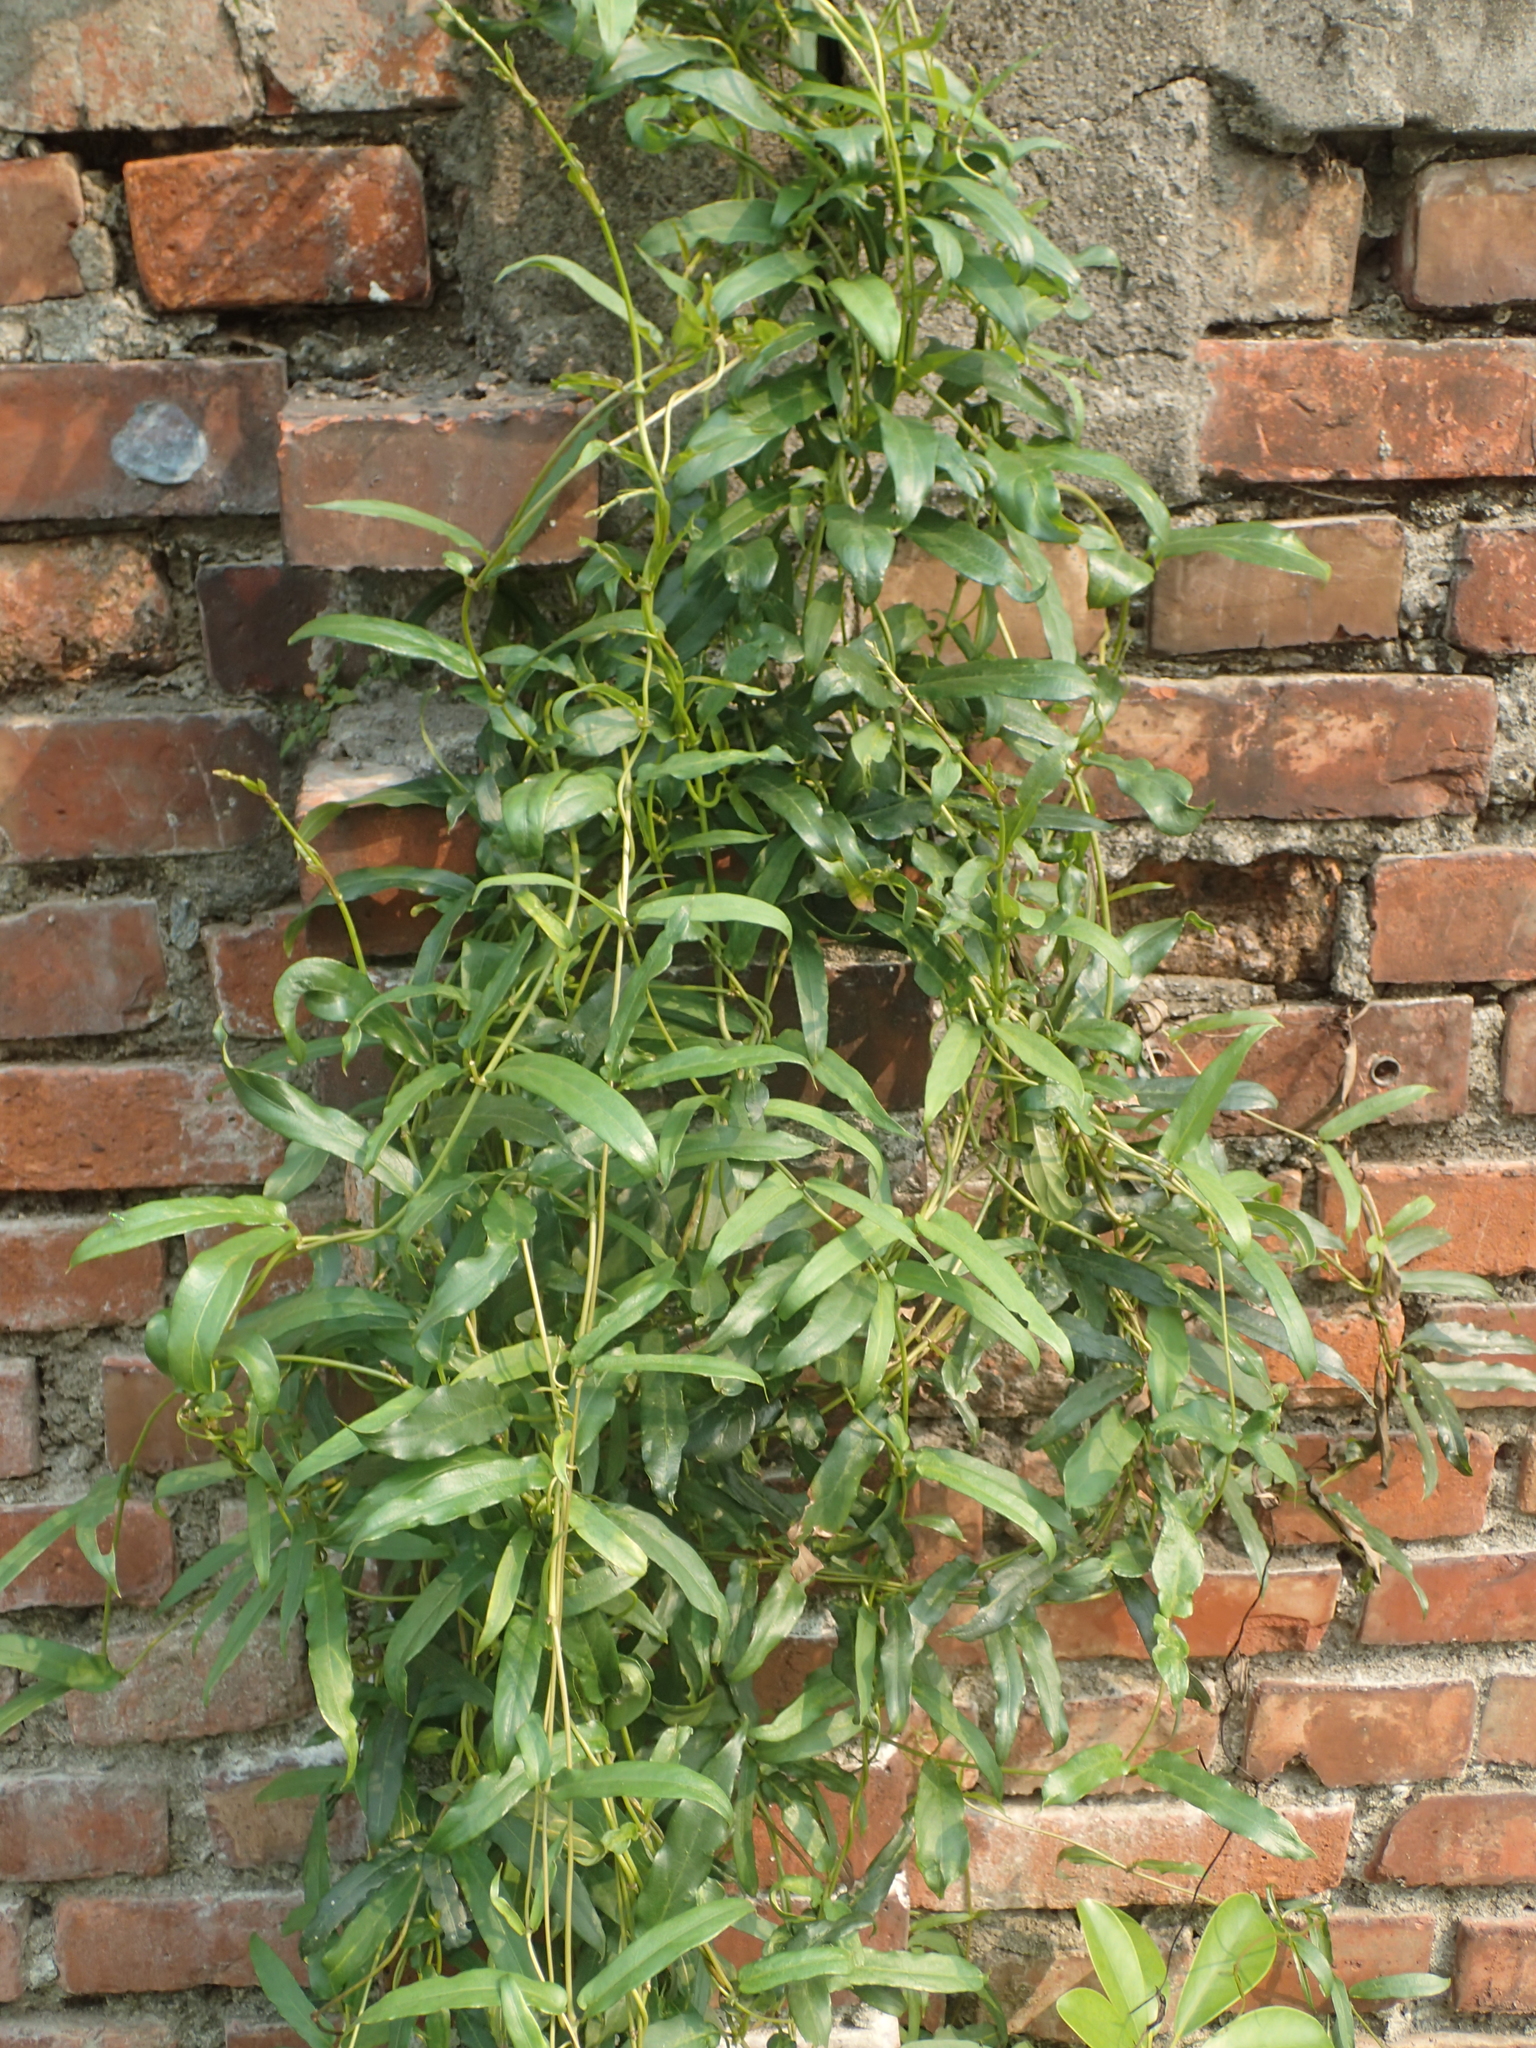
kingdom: Plantae
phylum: Tracheophyta
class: Magnoliopsida
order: Gentianales
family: Rubiaceae
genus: Paederia
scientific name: Paederia foetida
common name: Stinkvine
